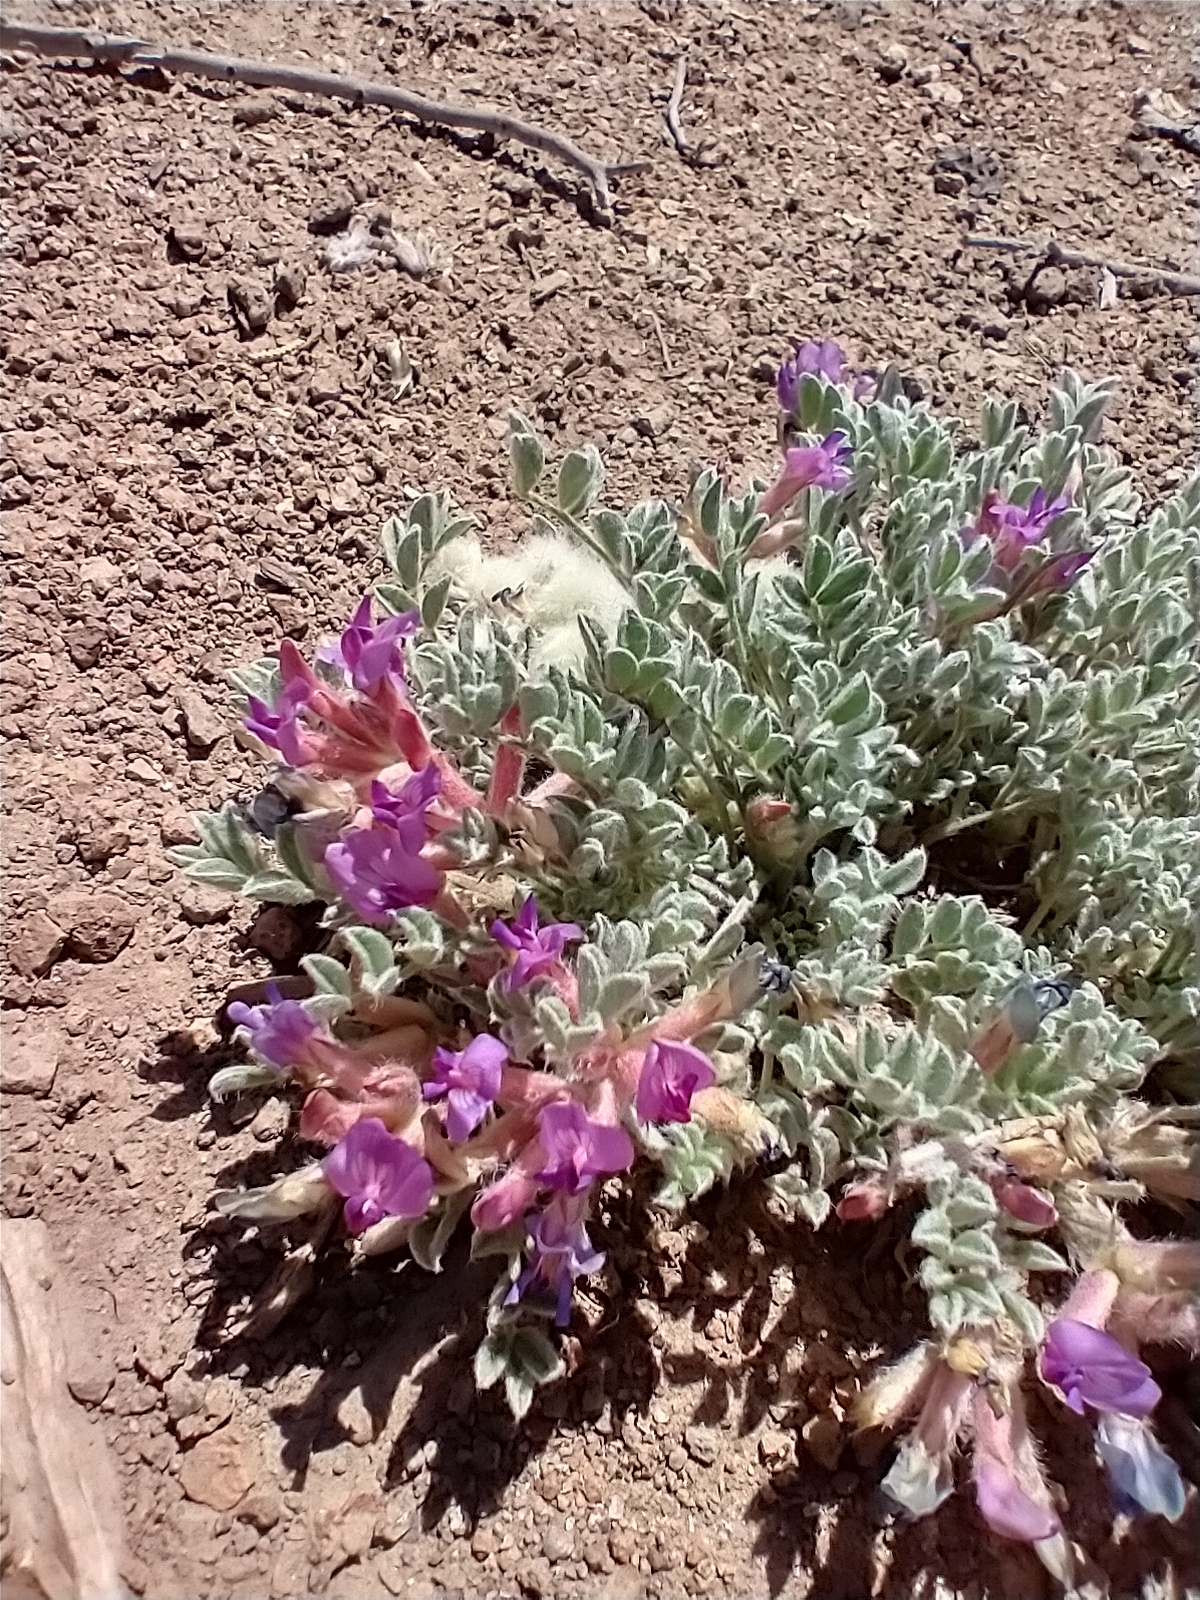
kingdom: Plantae
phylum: Tracheophyta
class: Magnoliopsida
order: Fabales
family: Fabaceae
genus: Astragalus
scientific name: Astragalus purshii
